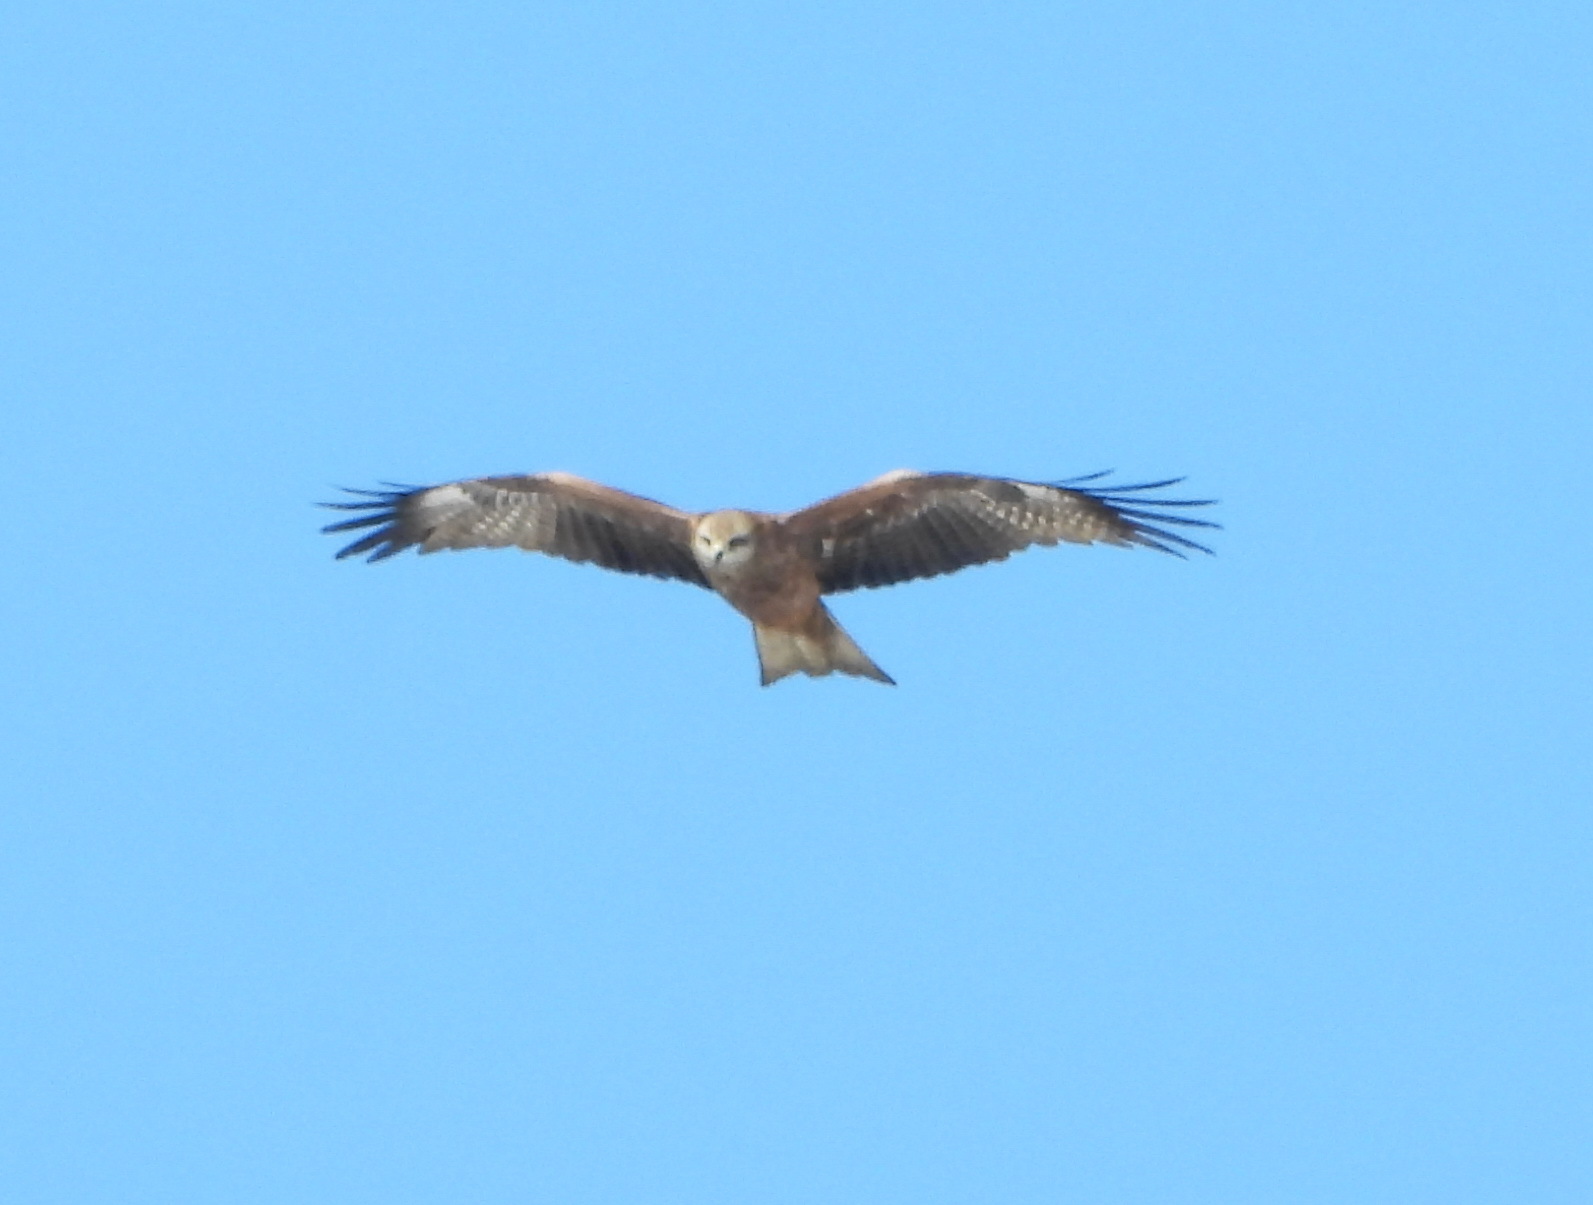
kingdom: Animalia
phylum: Chordata
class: Aves
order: Accipitriformes
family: Accipitridae
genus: Milvus
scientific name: Milvus migrans
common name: Black kite
